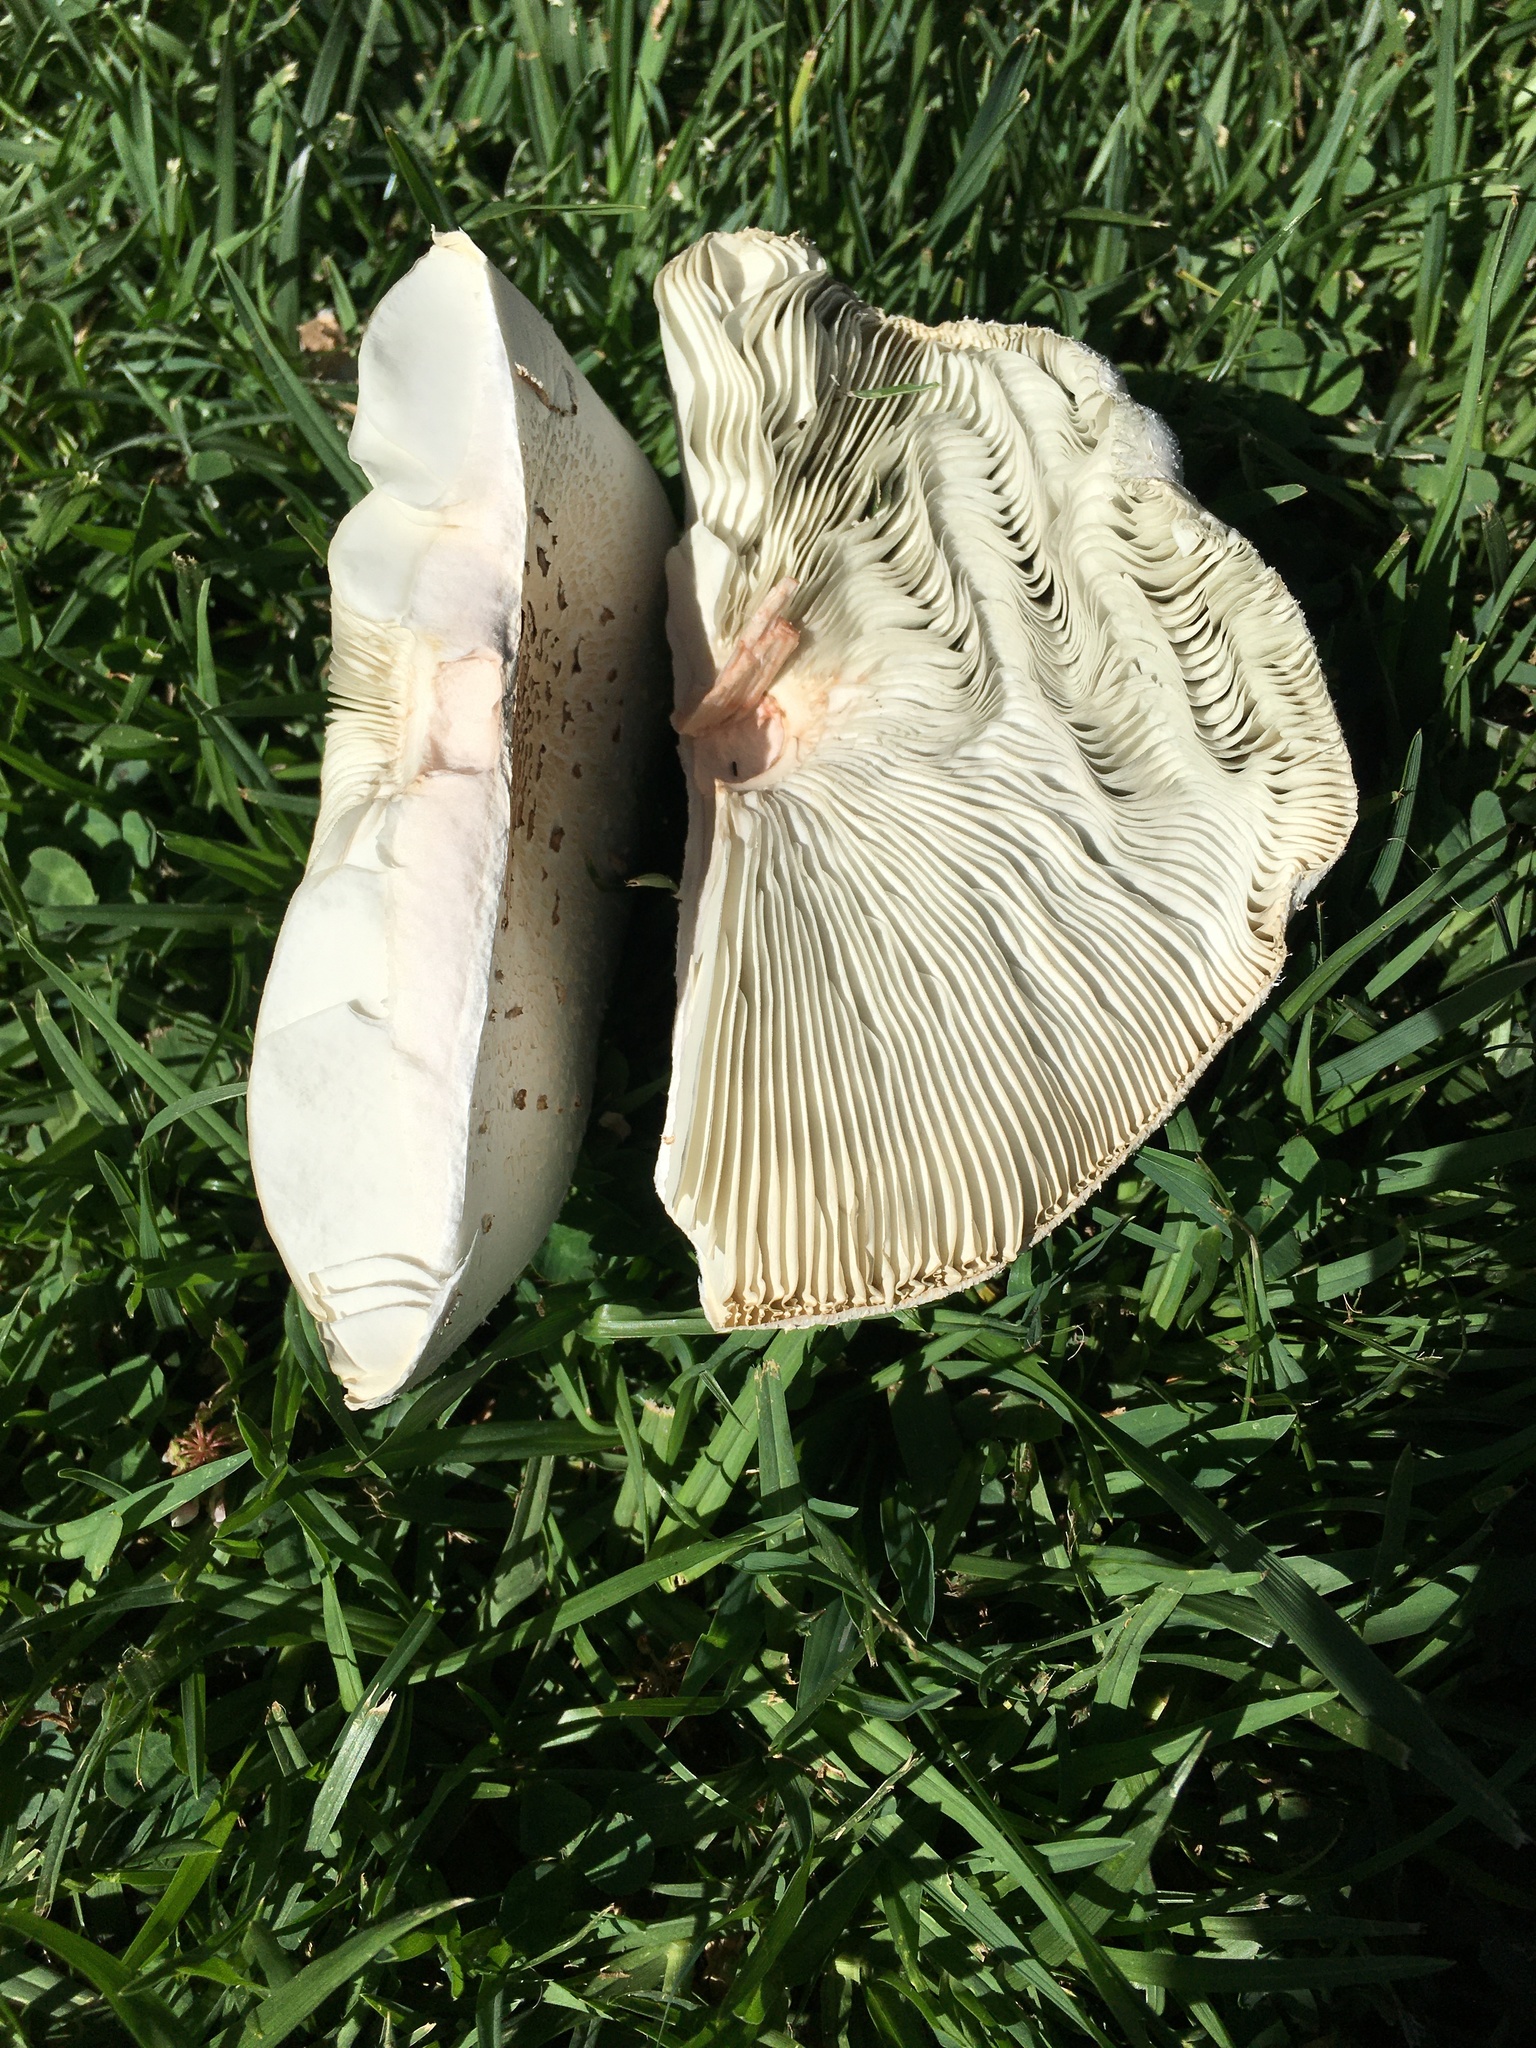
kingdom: Fungi
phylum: Basidiomycota
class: Agaricomycetes
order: Agaricales
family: Agaricaceae
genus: Chlorophyllum
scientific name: Chlorophyllum molybdites
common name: False parasol
